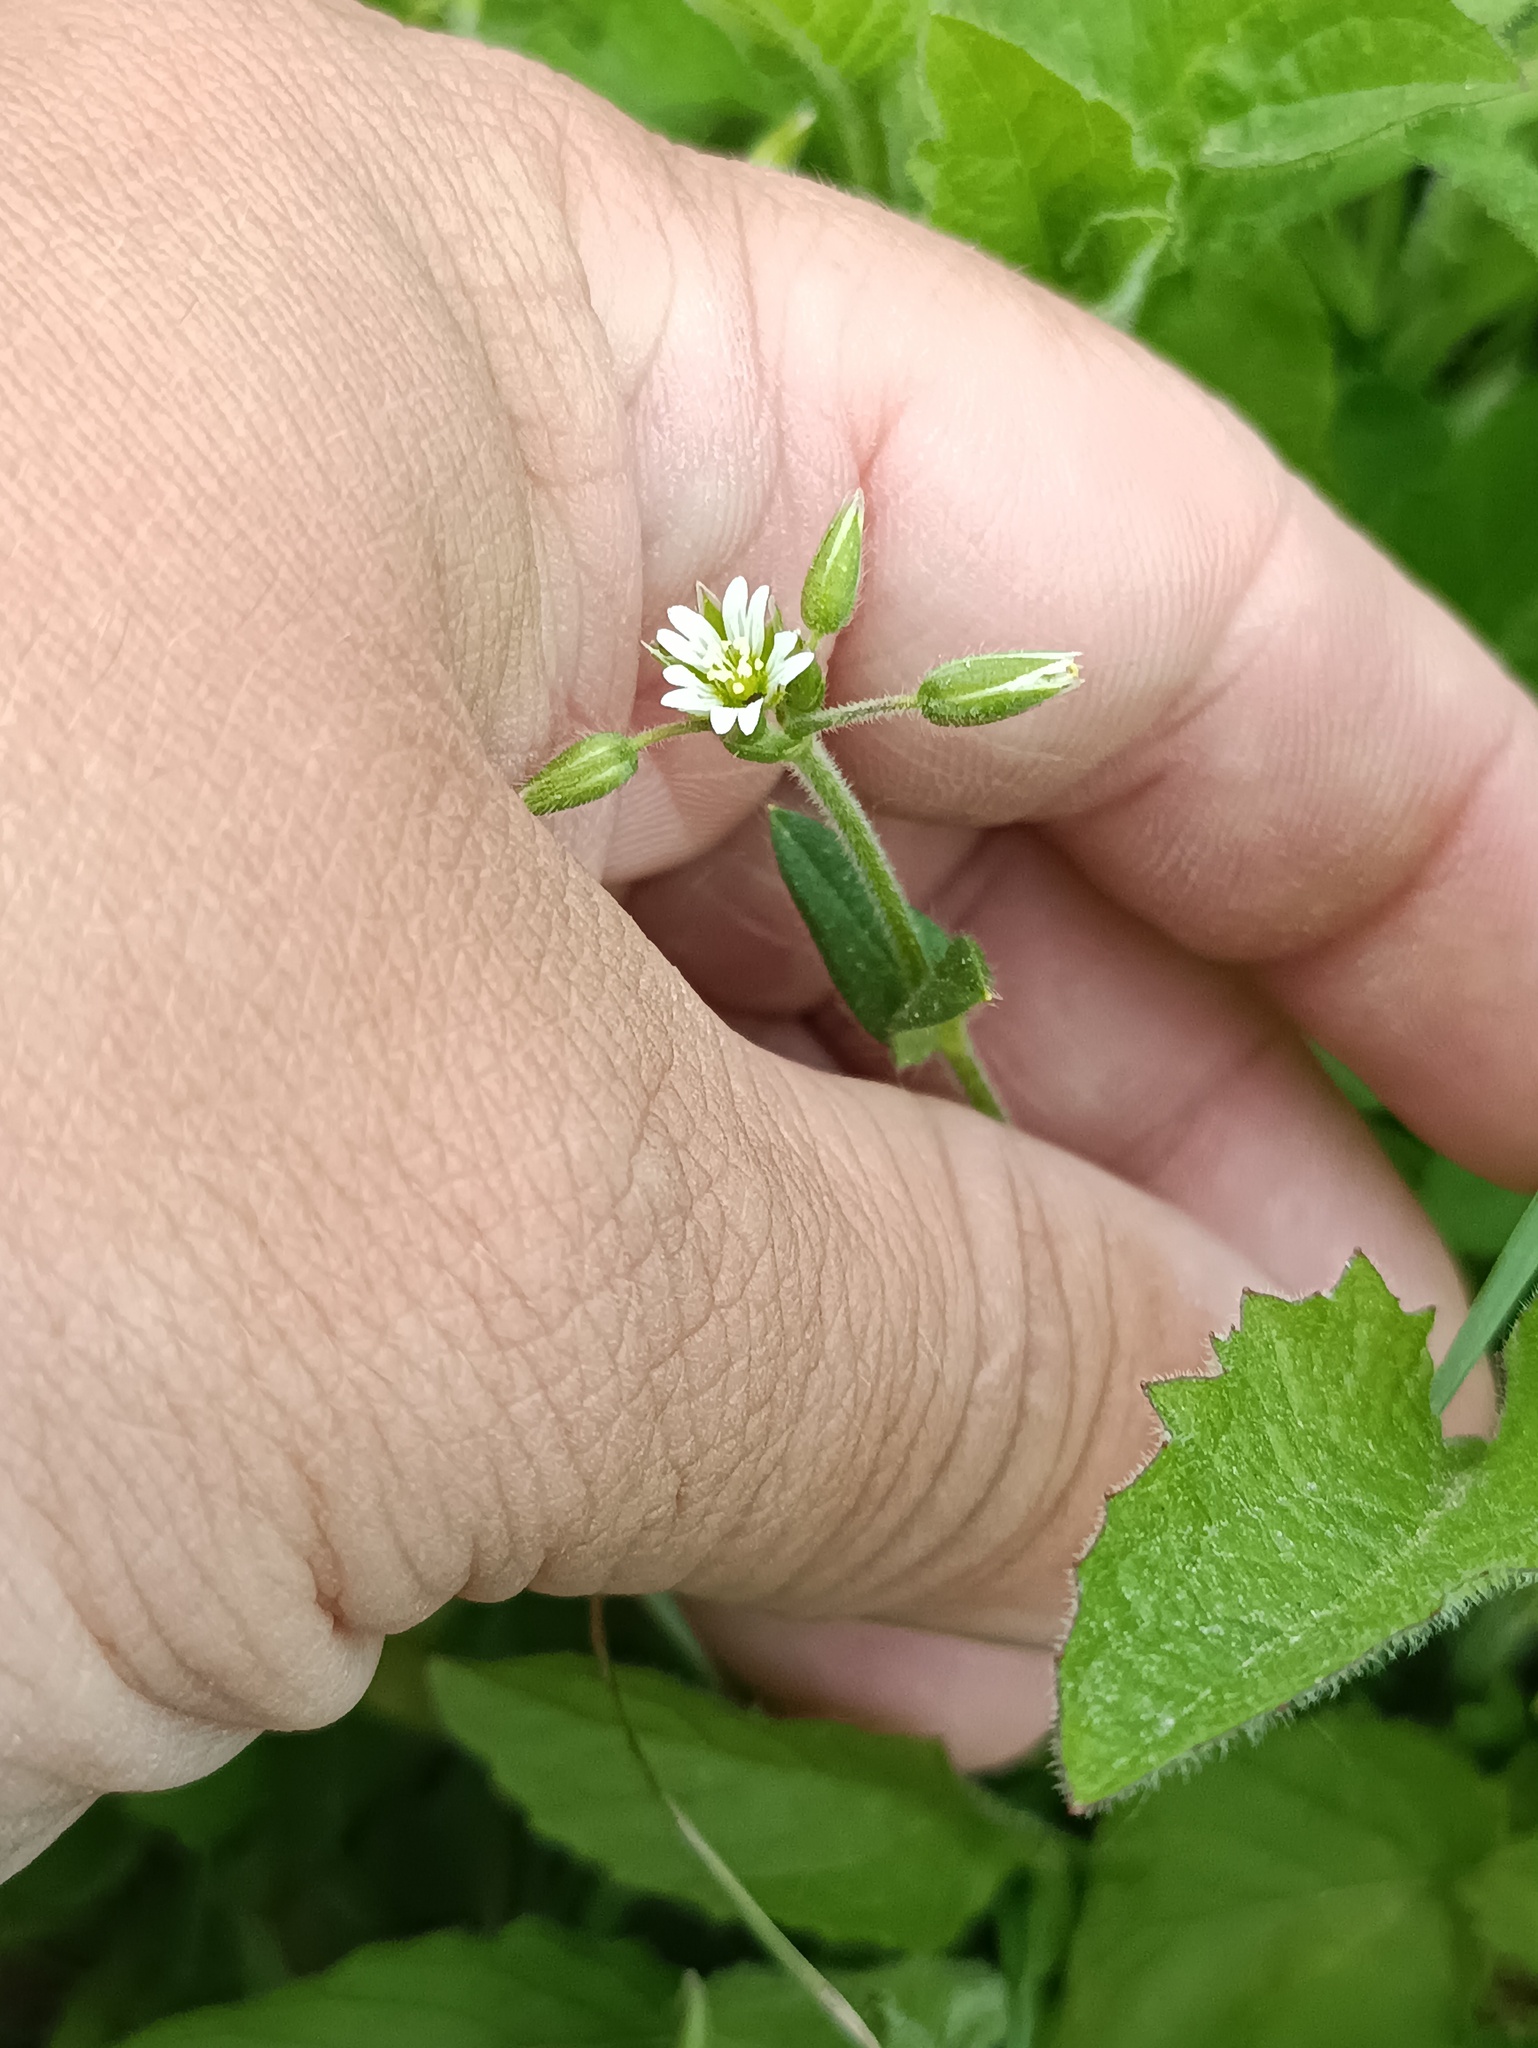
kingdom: Plantae
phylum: Tracheophyta
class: Magnoliopsida
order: Caryophyllales
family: Caryophyllaceae
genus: Cerastium
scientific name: Cerastium holosteoides
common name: Big chickweed
